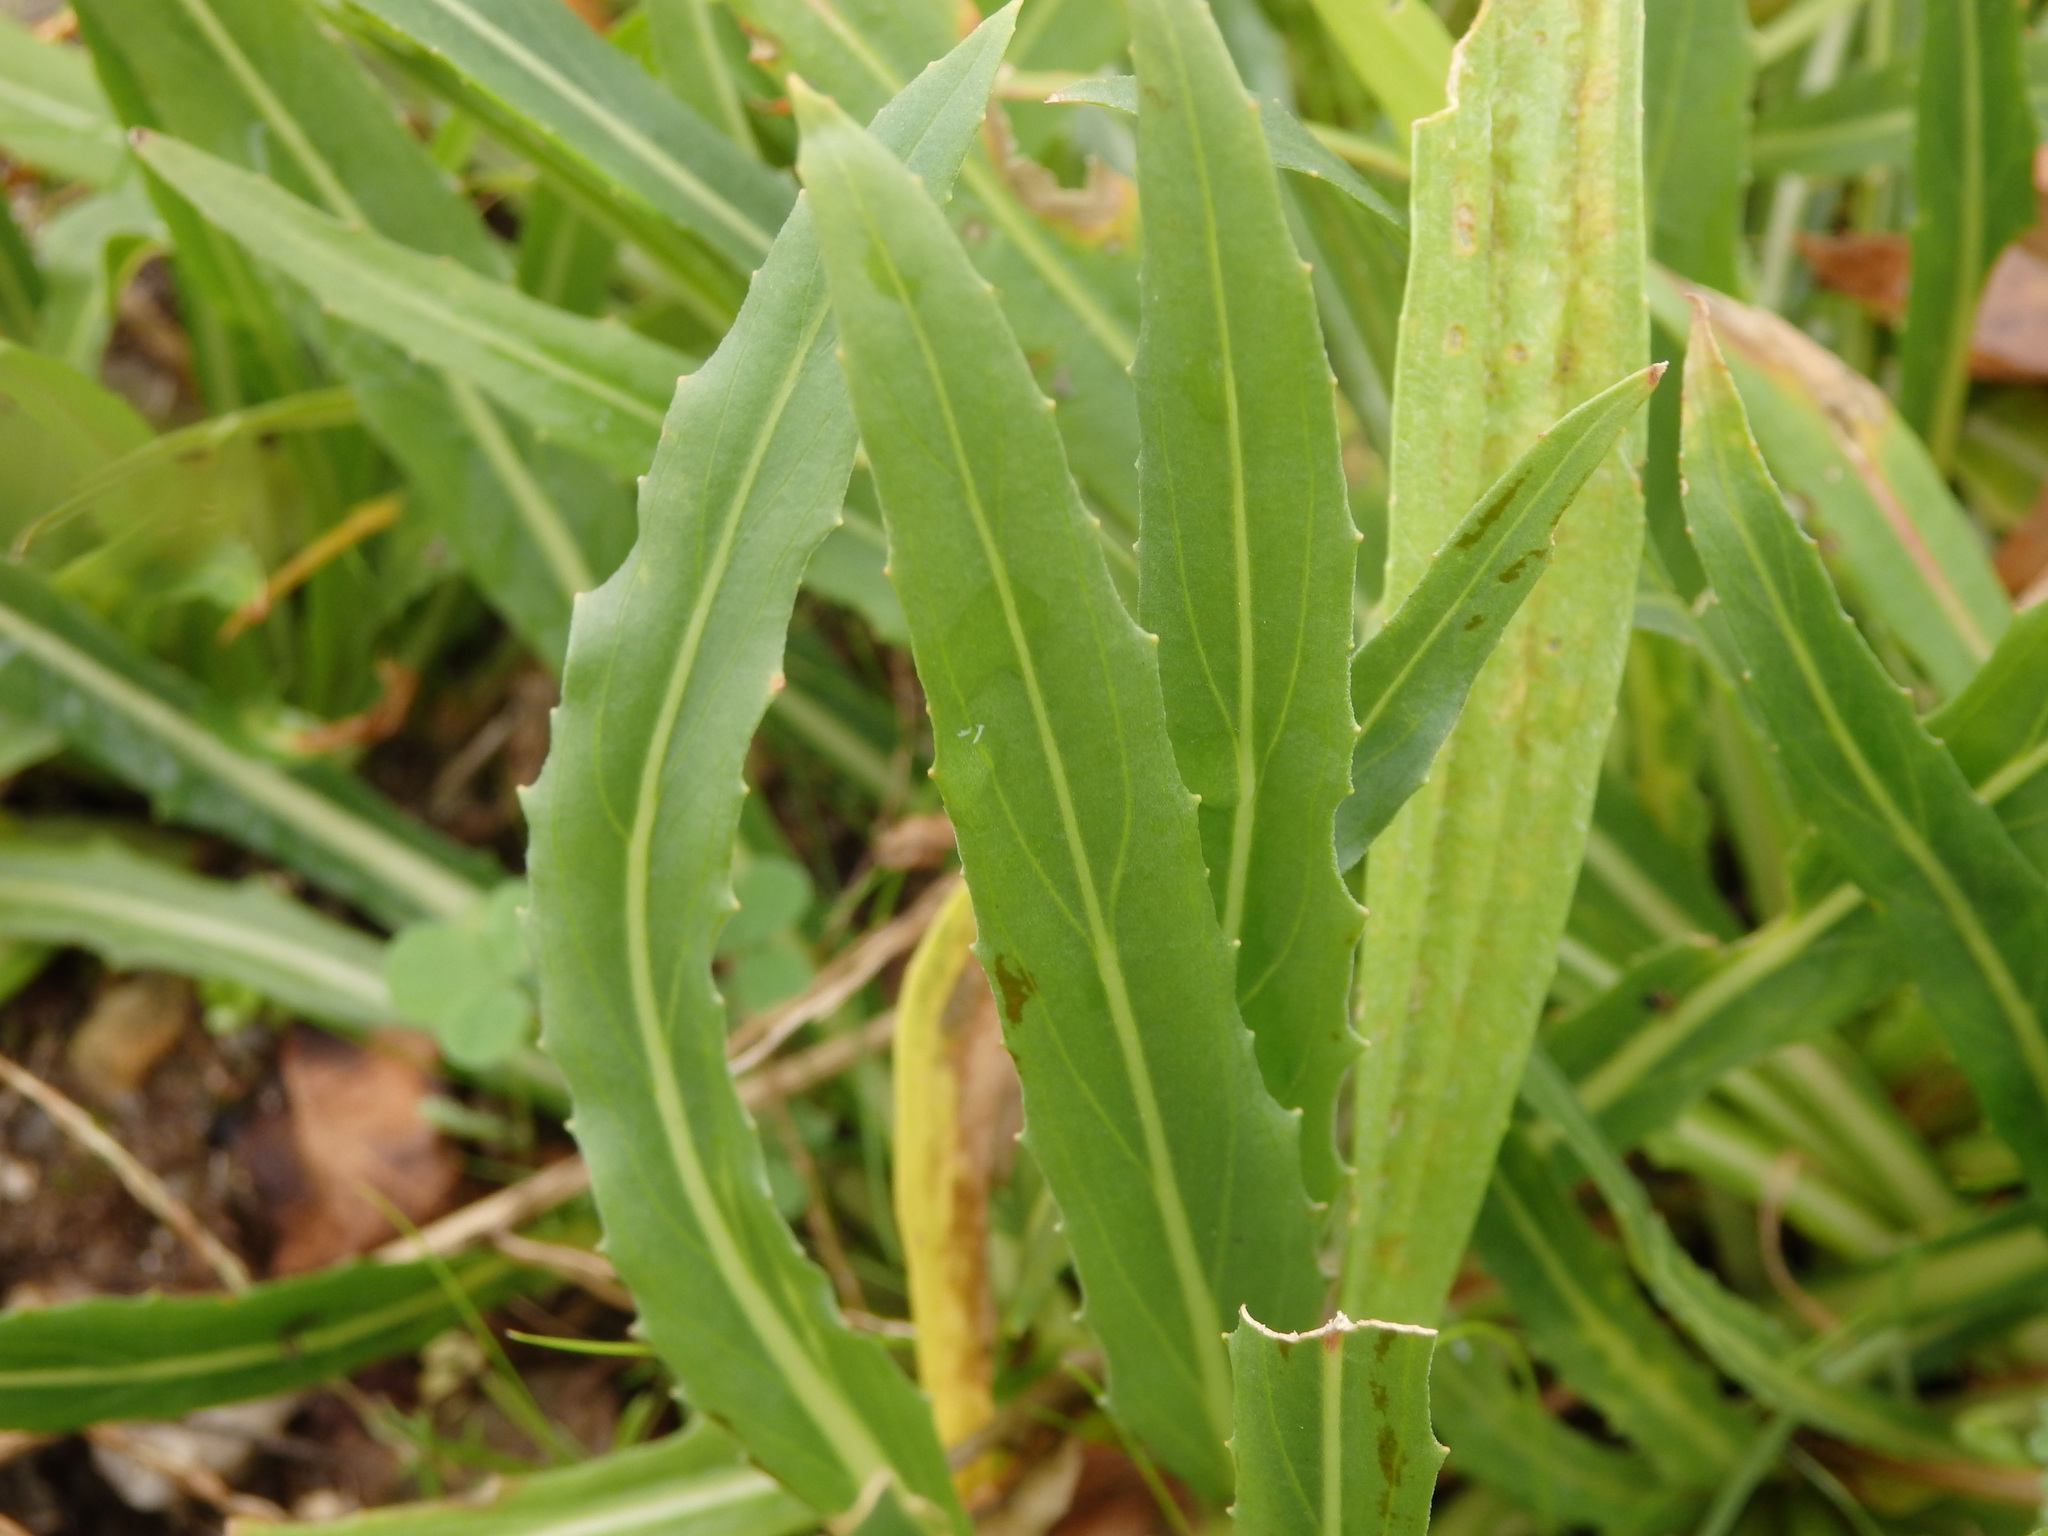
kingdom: Plantae
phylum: Tracheophyta
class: Magnoliopsida
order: Myrtales
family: Onagraceae
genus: Oenothera
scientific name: Oenothera stricta
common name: Fragrant evening-primrose
